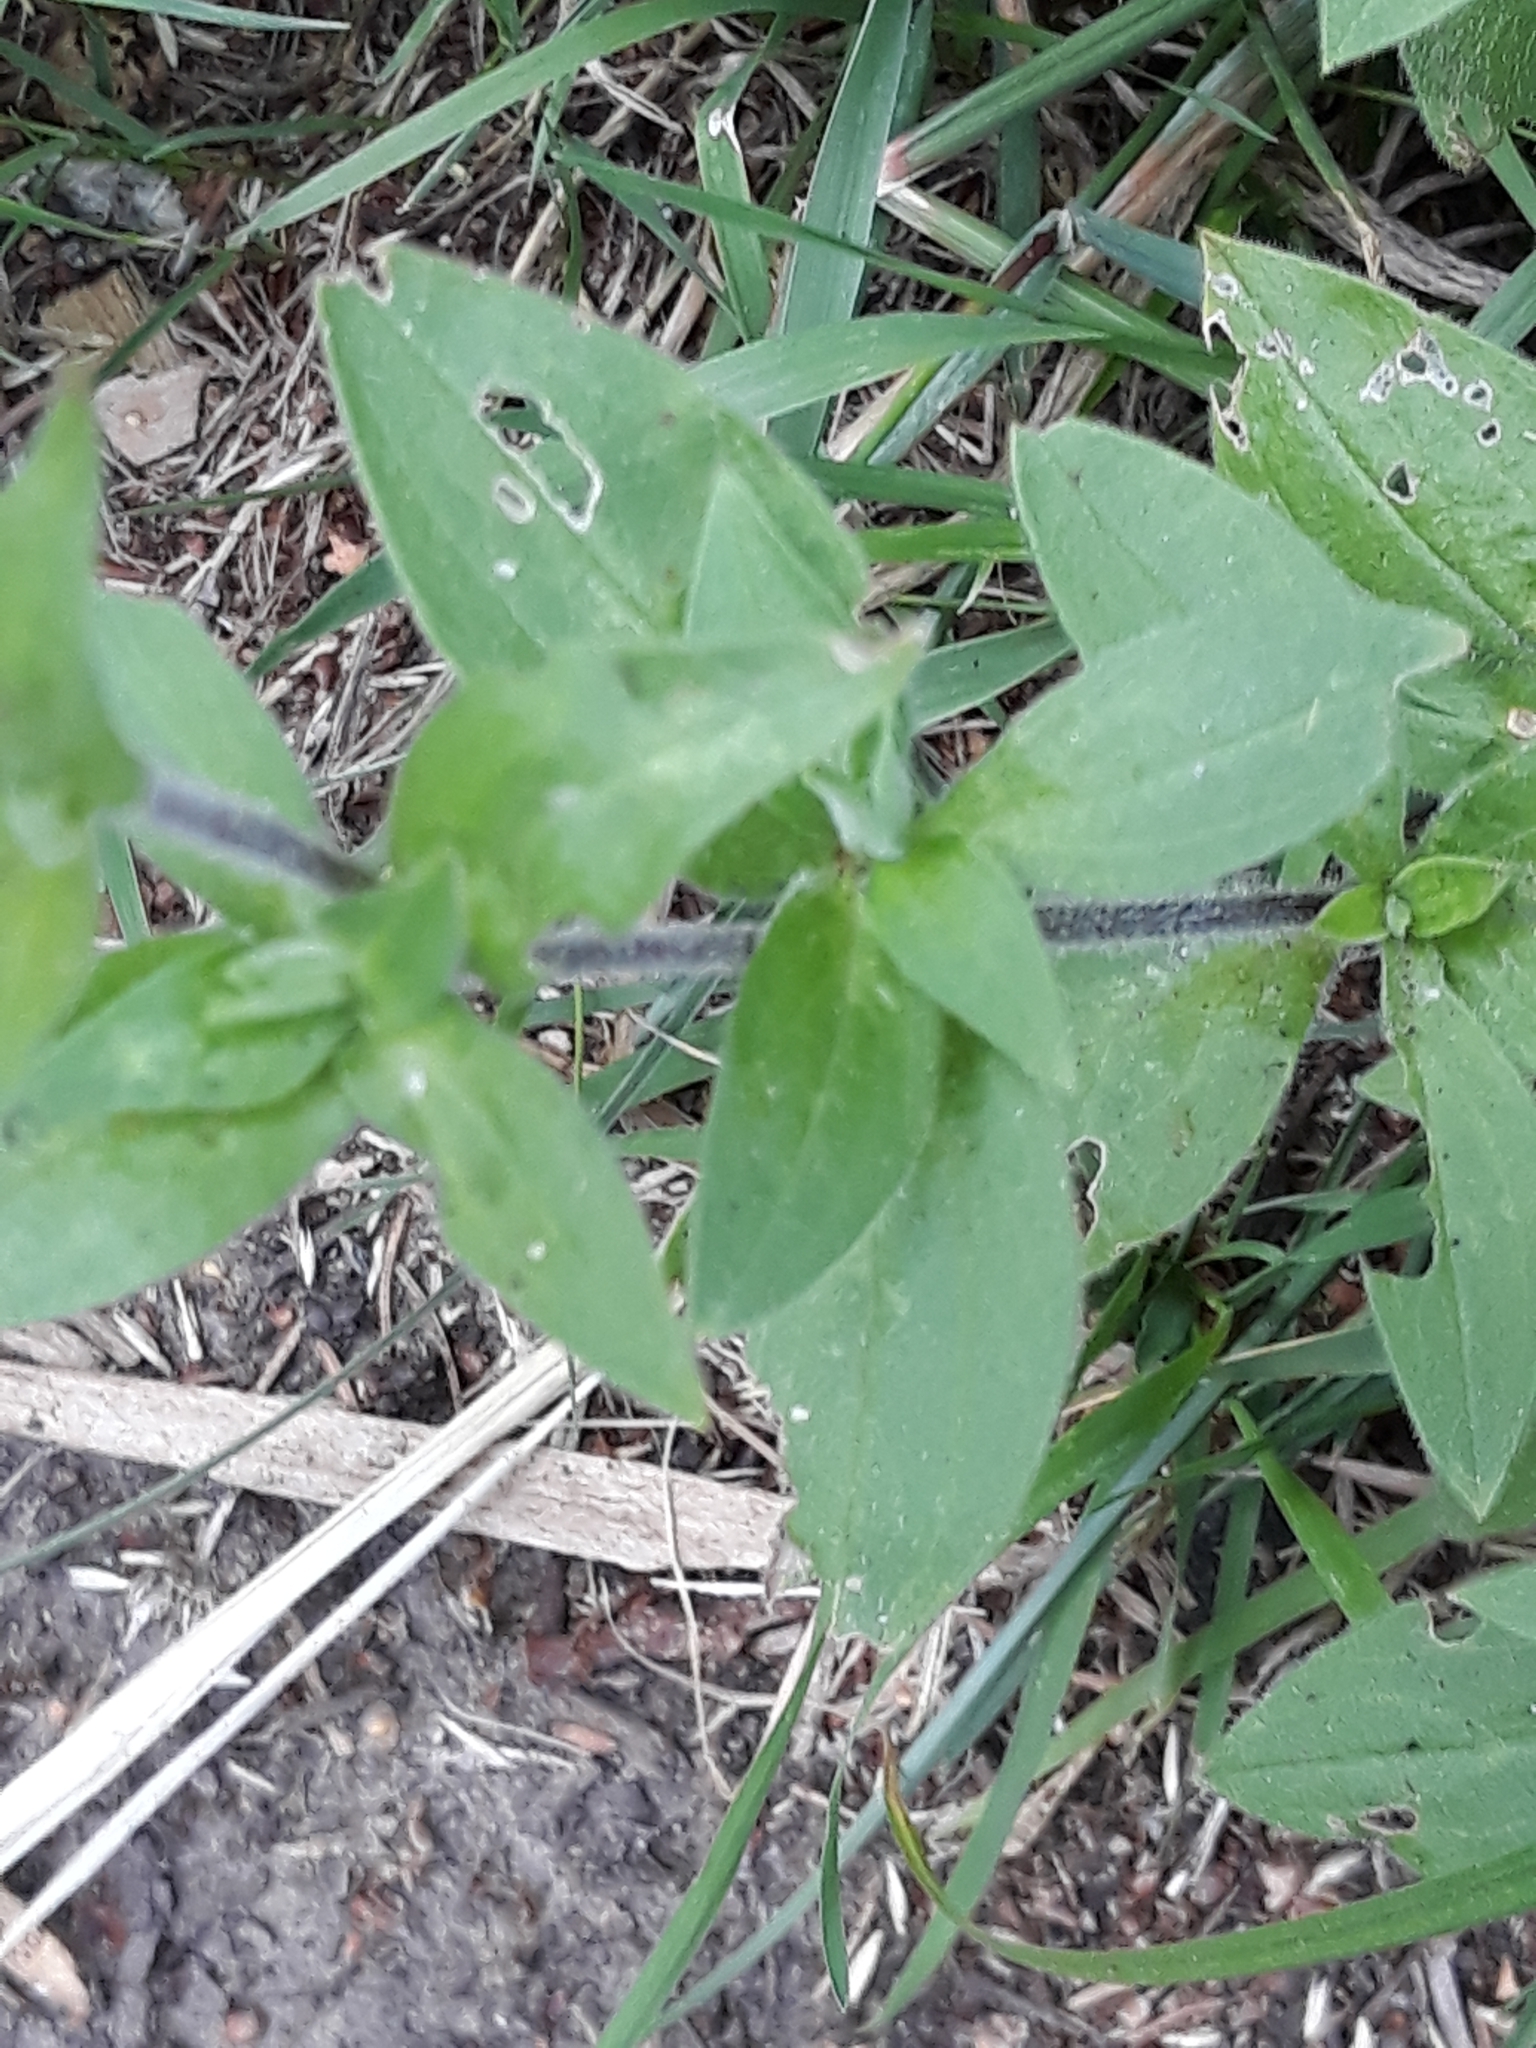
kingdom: Plantae
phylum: Tracheophyta
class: Magnoliopsida
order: Caryophyllales
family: Caryophyllaceae
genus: Silene
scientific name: Silene latifolia
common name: White campion
